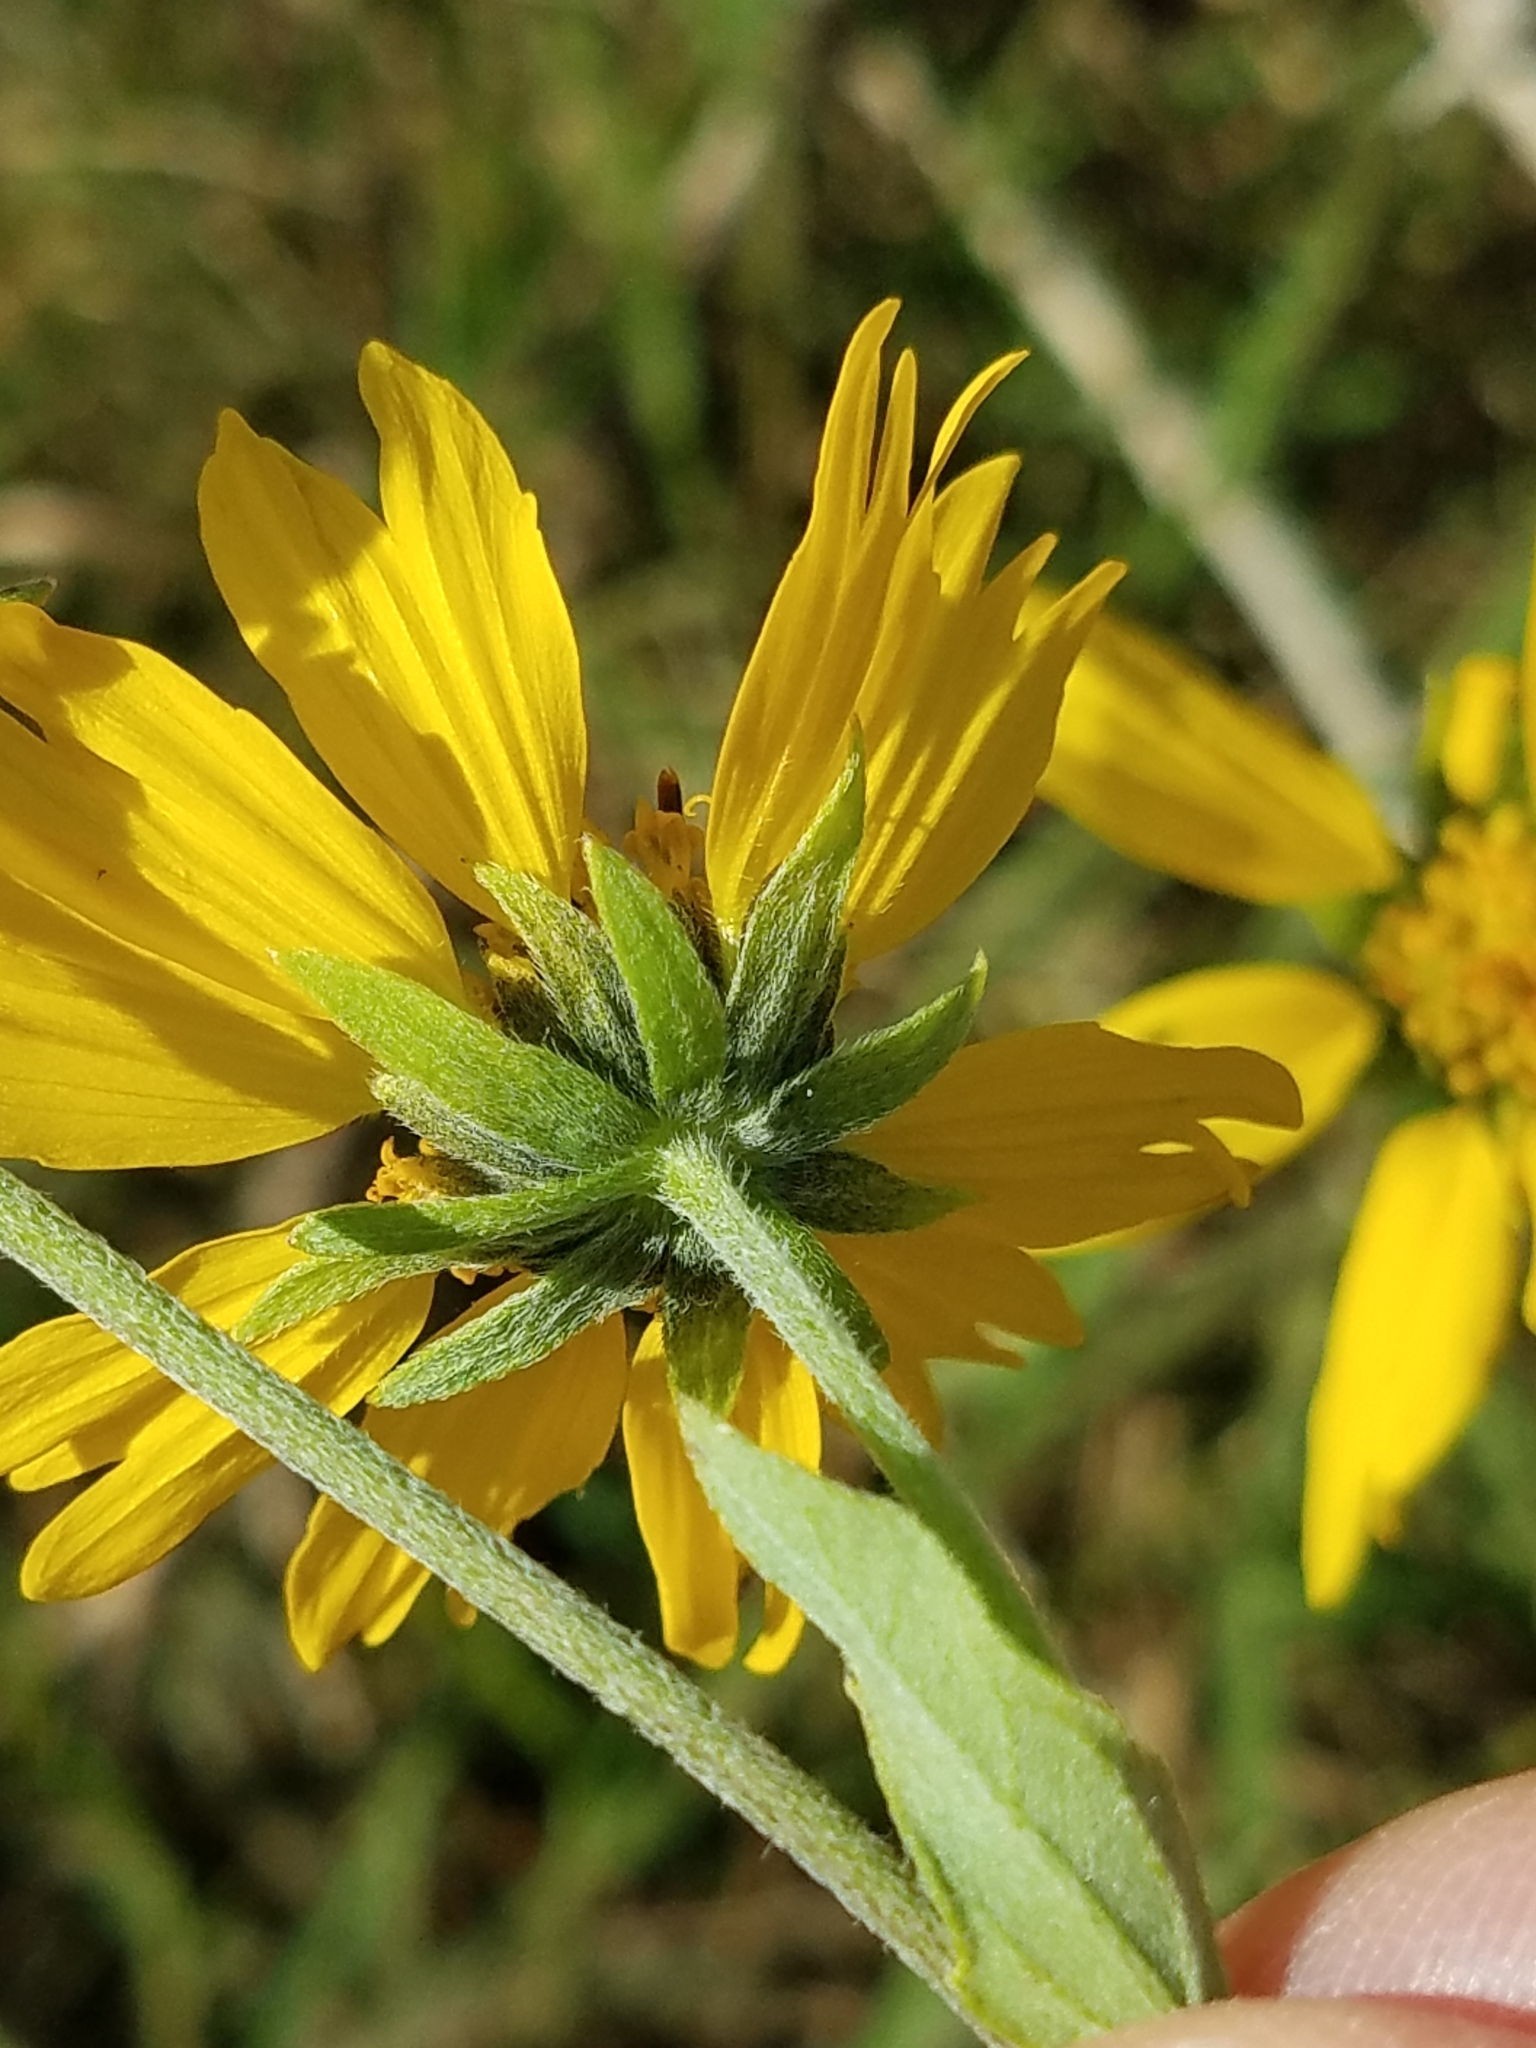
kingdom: Plantae
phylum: Tracheophyta
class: Magnoliopsida
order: Asterales
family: Asteraceae
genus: Verbesina
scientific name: Verbesina encelioides
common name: Golden crownbeard
